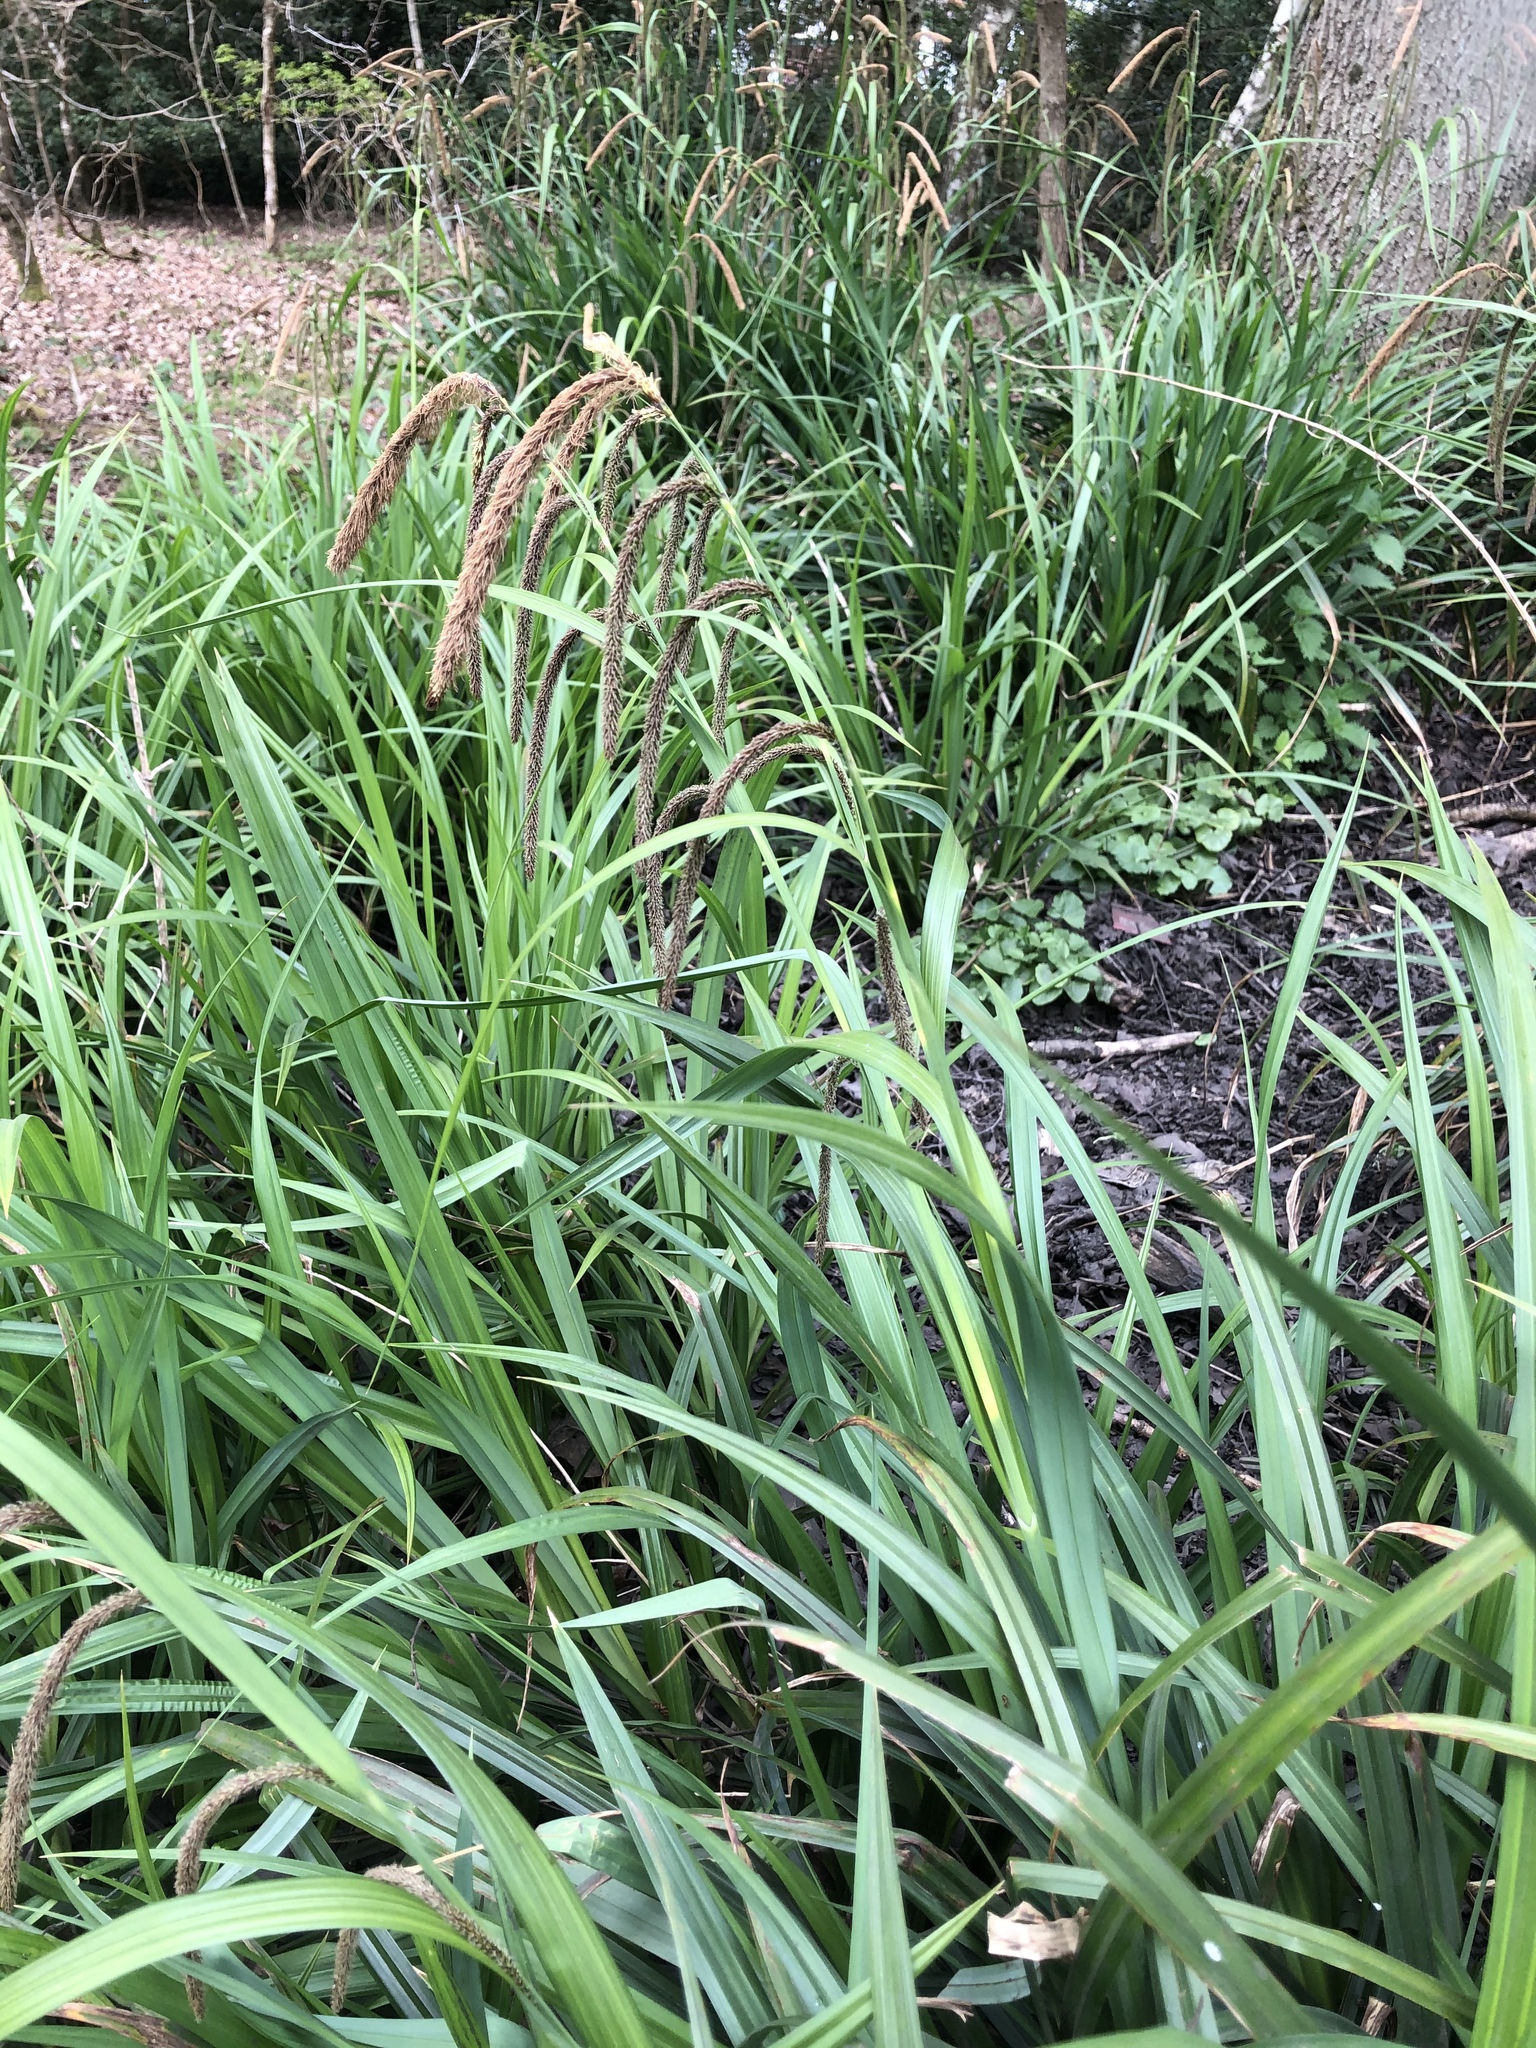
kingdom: Plantae
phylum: Tracheophyta
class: Liliopsida
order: Poales
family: Cyperaceae
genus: Carex
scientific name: Carex pendula
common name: Pendulous sedge
